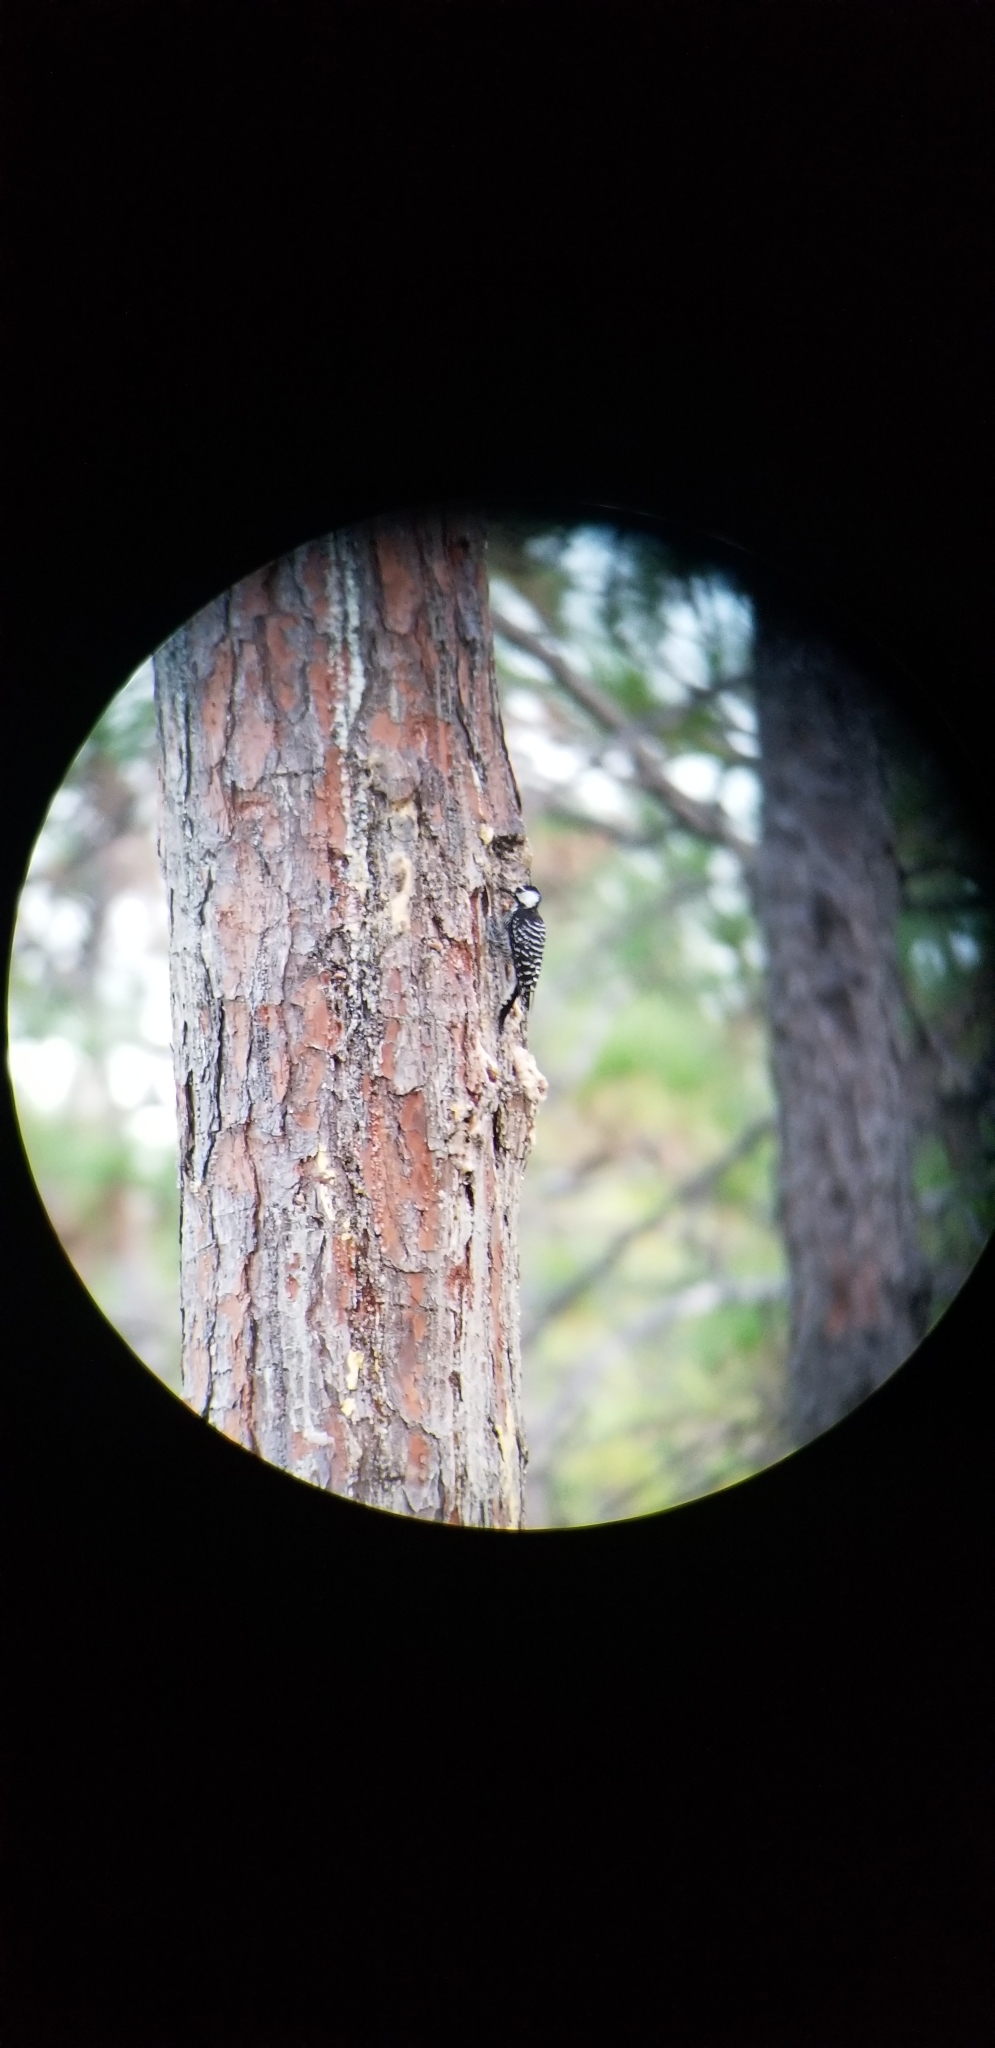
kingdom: Animalia
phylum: Chordata
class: Aves
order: Piciformes
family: Picidae
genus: Leuconotopicus
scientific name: Leuconotopicus borealis
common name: Red-cockaded woodpecker
